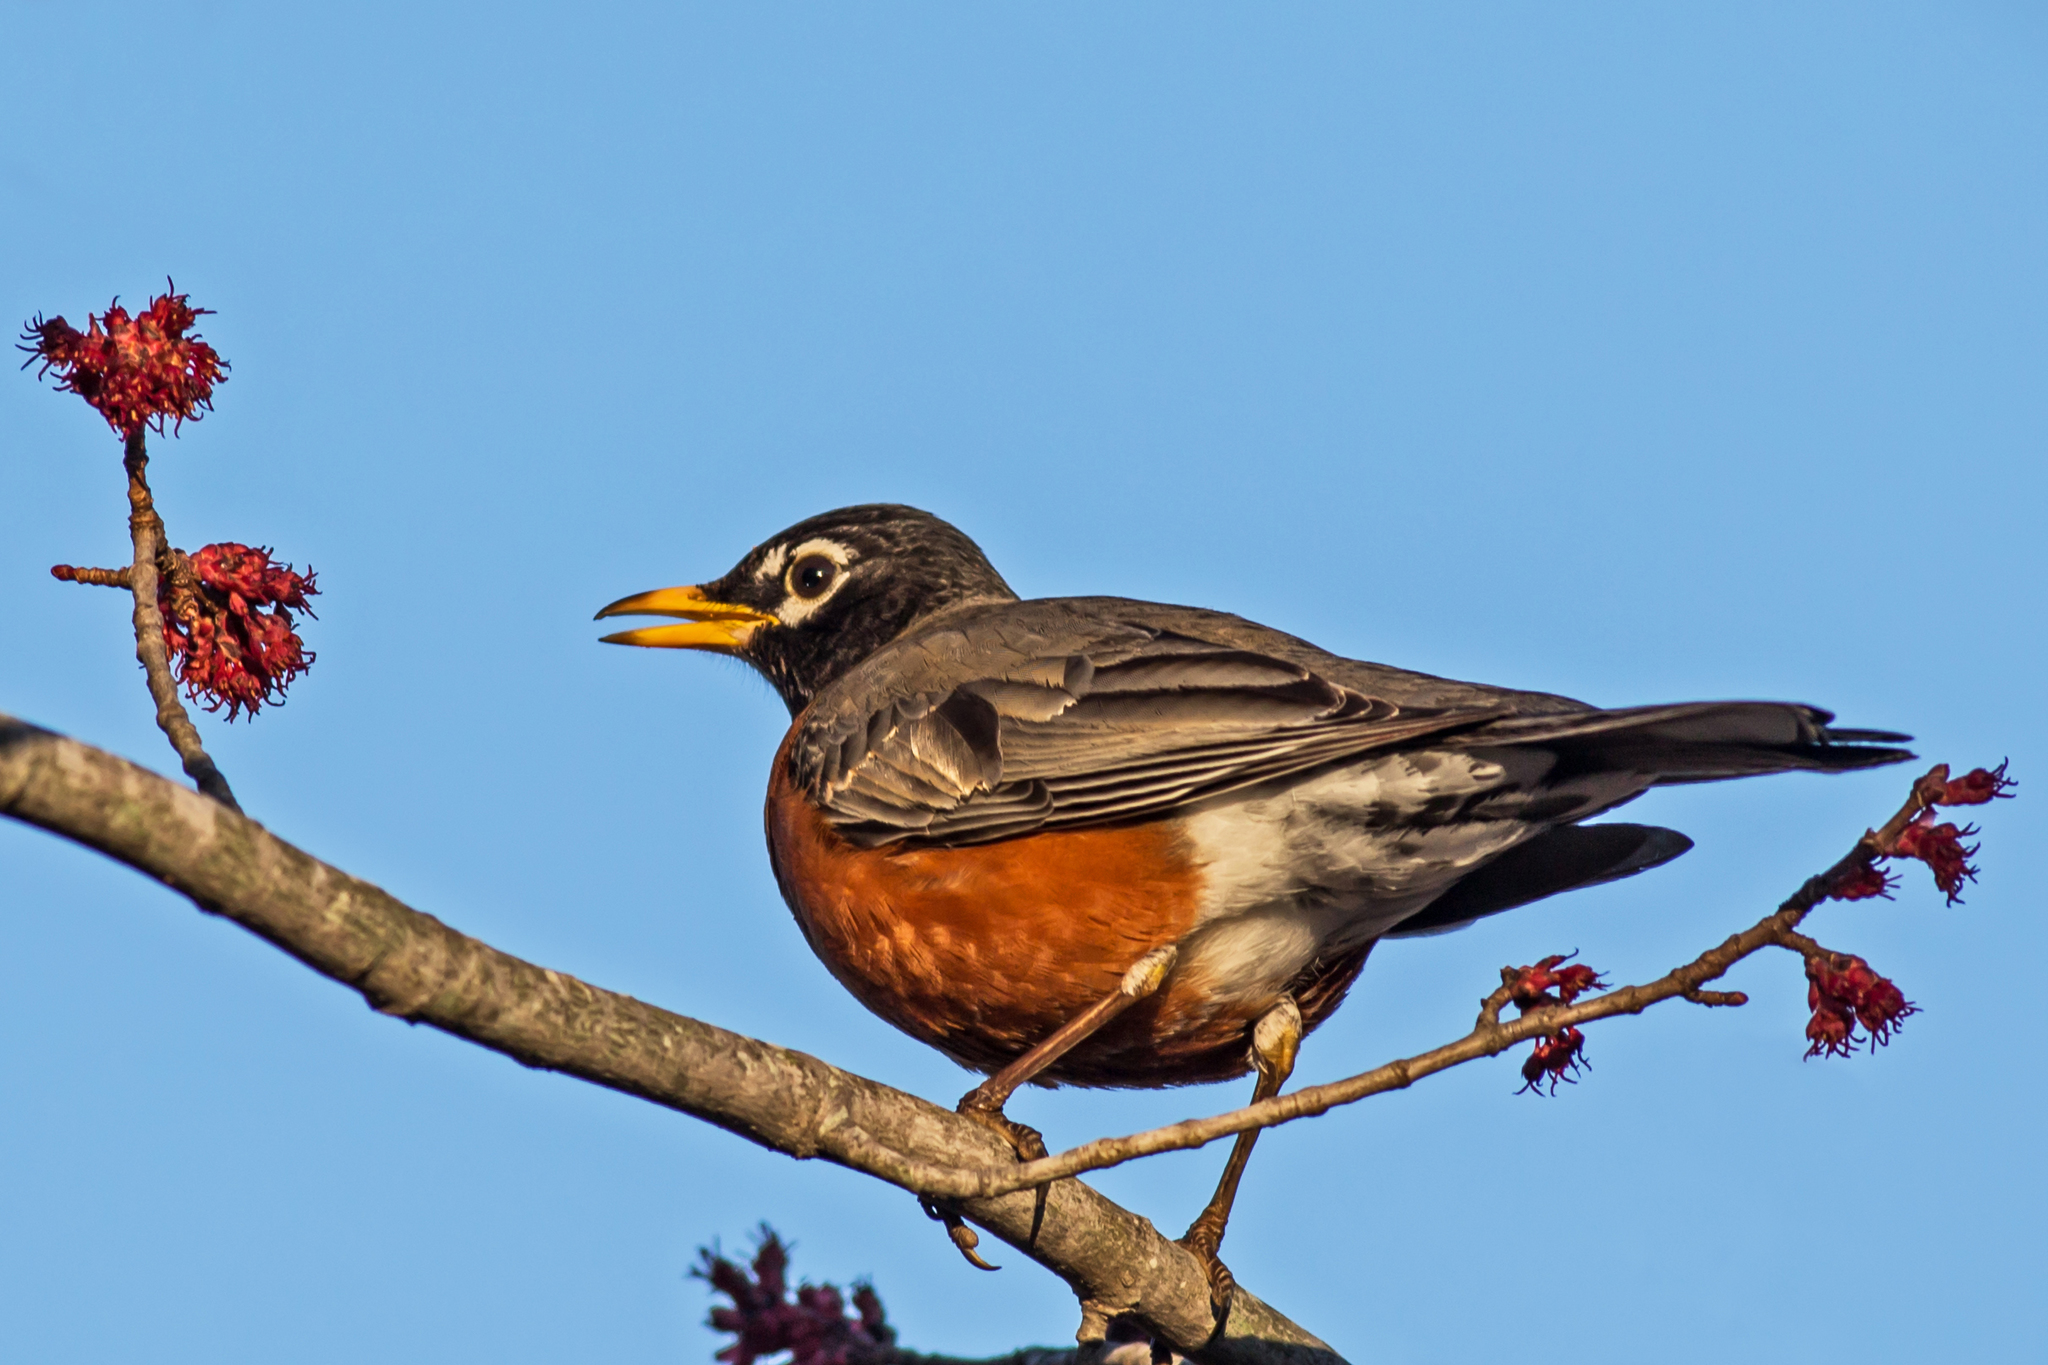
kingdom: Animalia
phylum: Chordata
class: Aves
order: Passeriformes
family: Turdidae
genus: Turdus
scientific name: Turdus migratorius
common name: American robin
